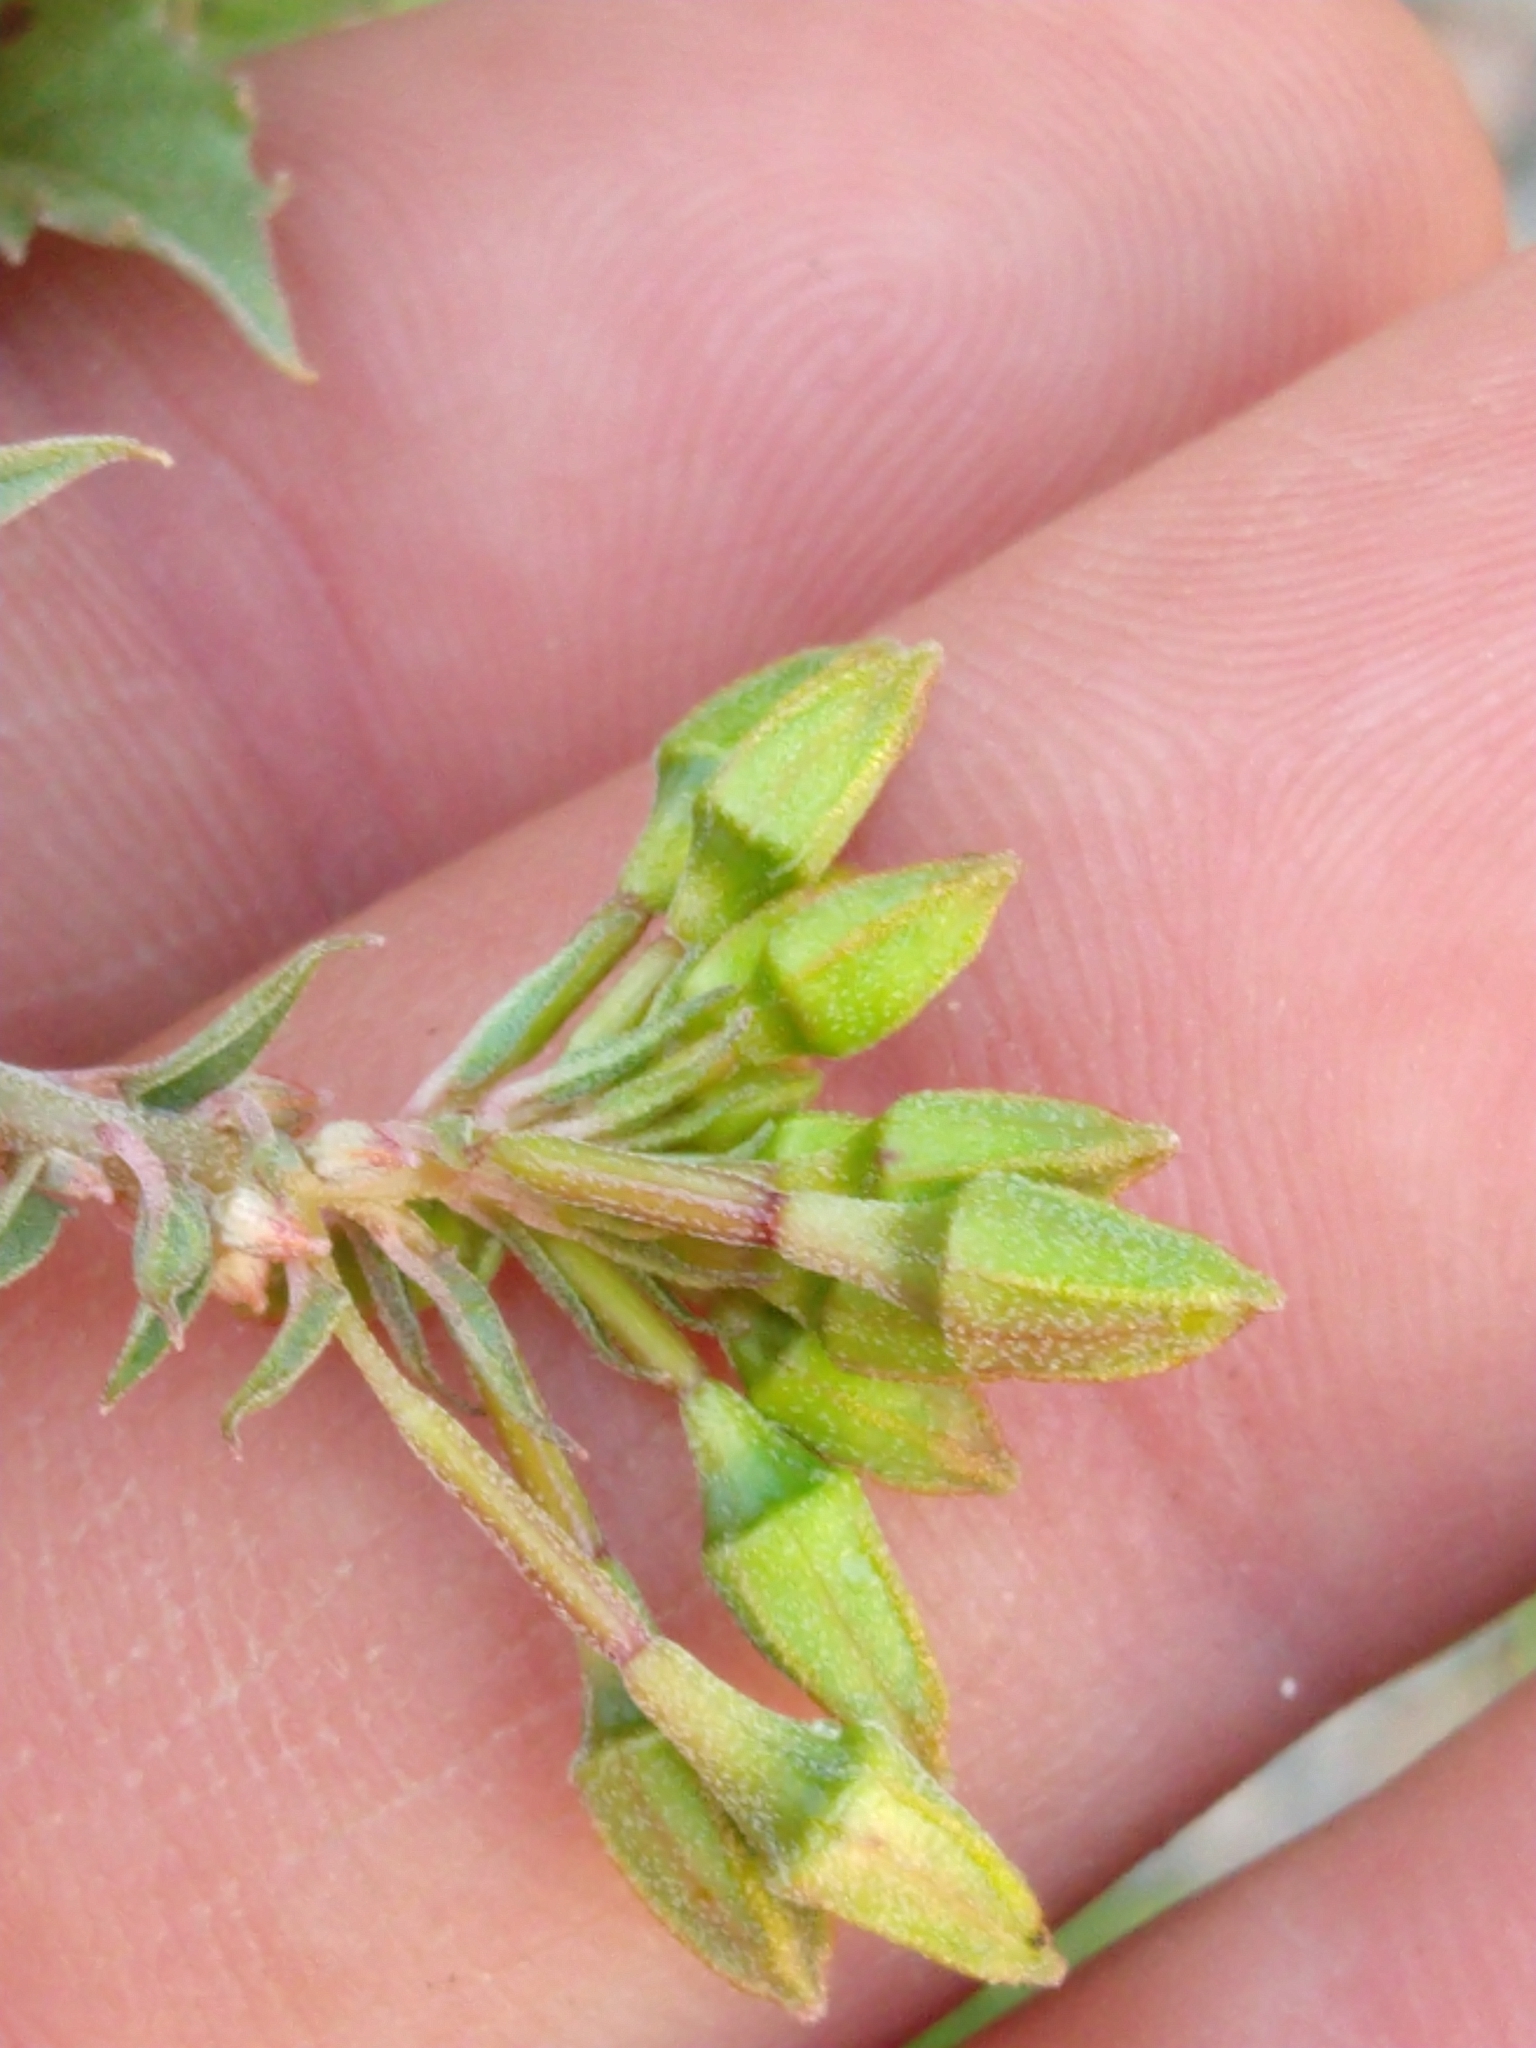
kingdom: Plantae
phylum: Tracheophyta
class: Magnoliopsida
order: Myrtales
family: Onagraceae
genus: Chylismia
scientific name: Chylismia claviformis
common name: Browneyes
